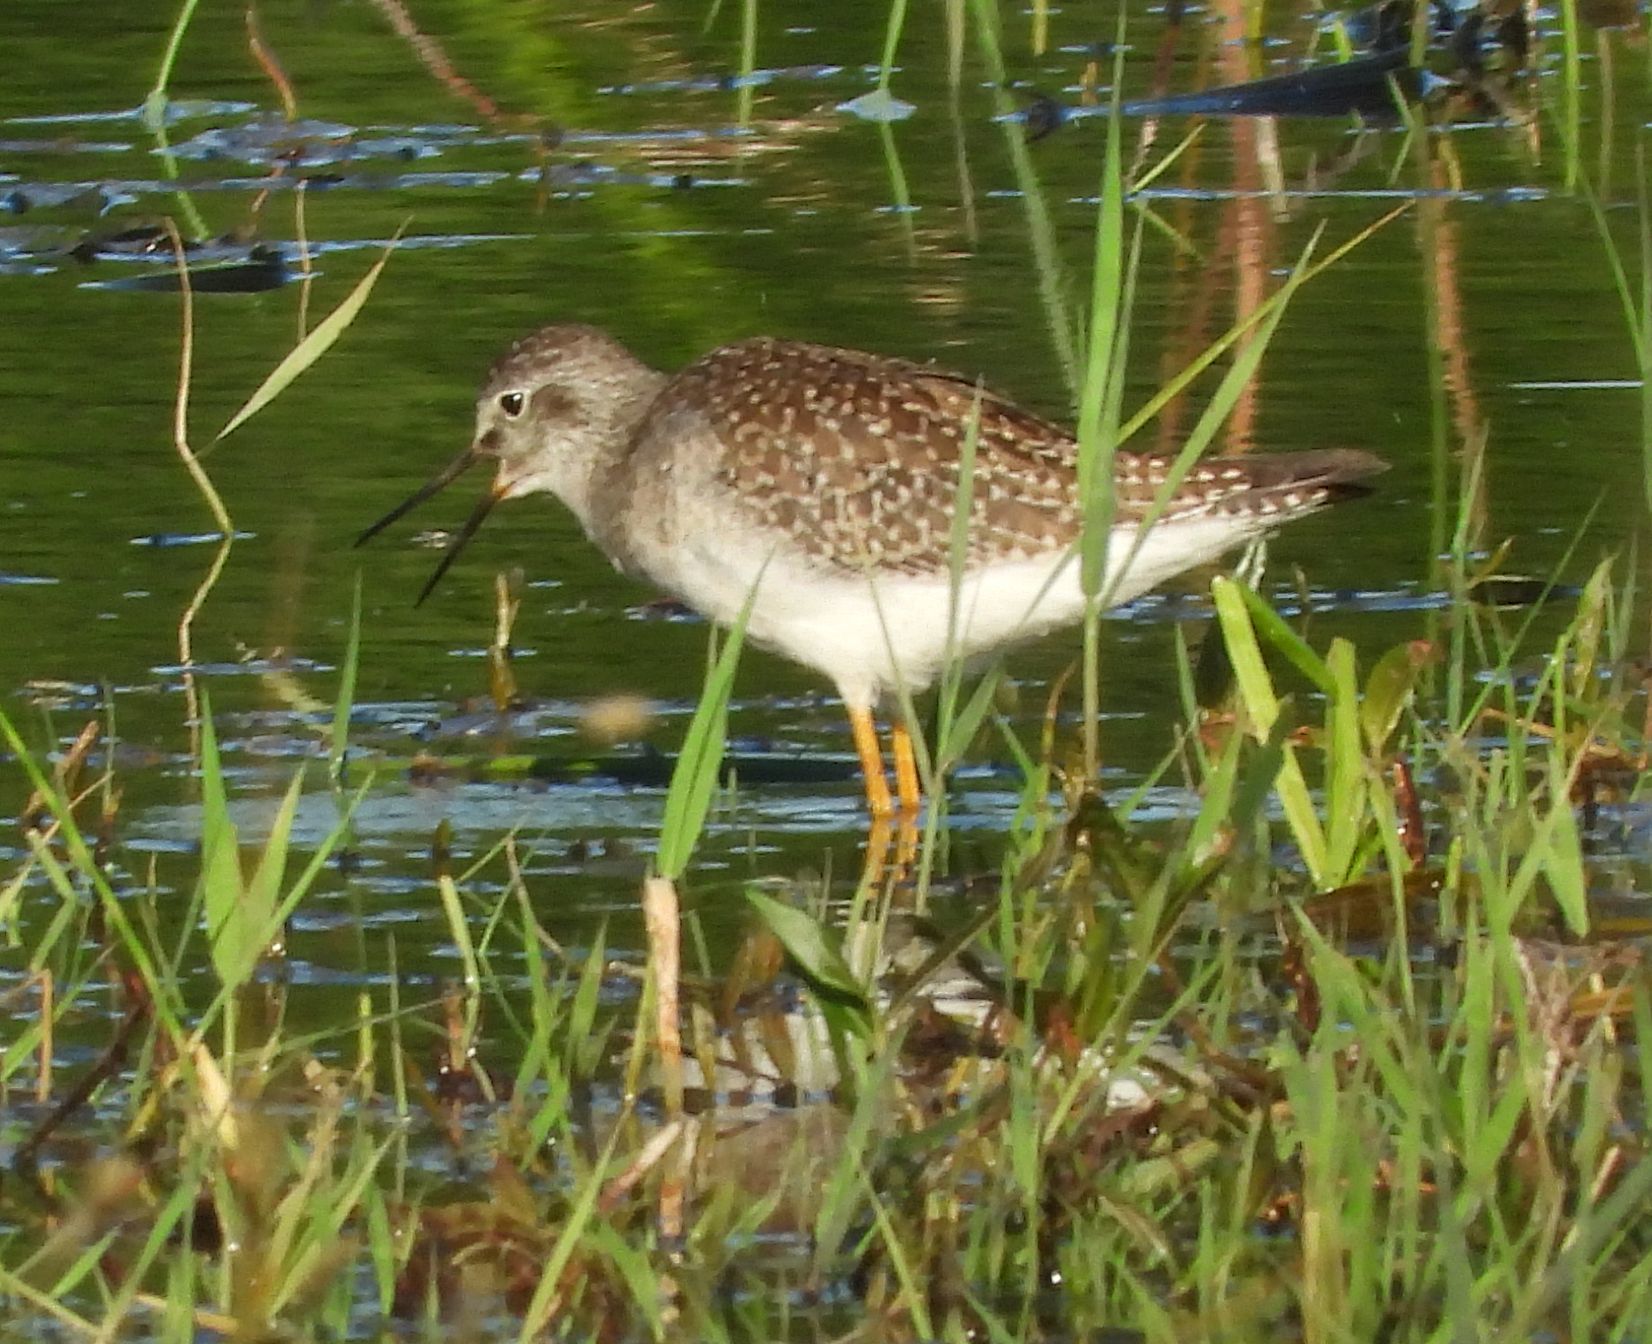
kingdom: Animalia
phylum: Chordata
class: Aves
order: Charadriiformes
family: Scolopacidae
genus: Tringa
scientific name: Tringa flavipes
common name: Lesser yellowlegs
